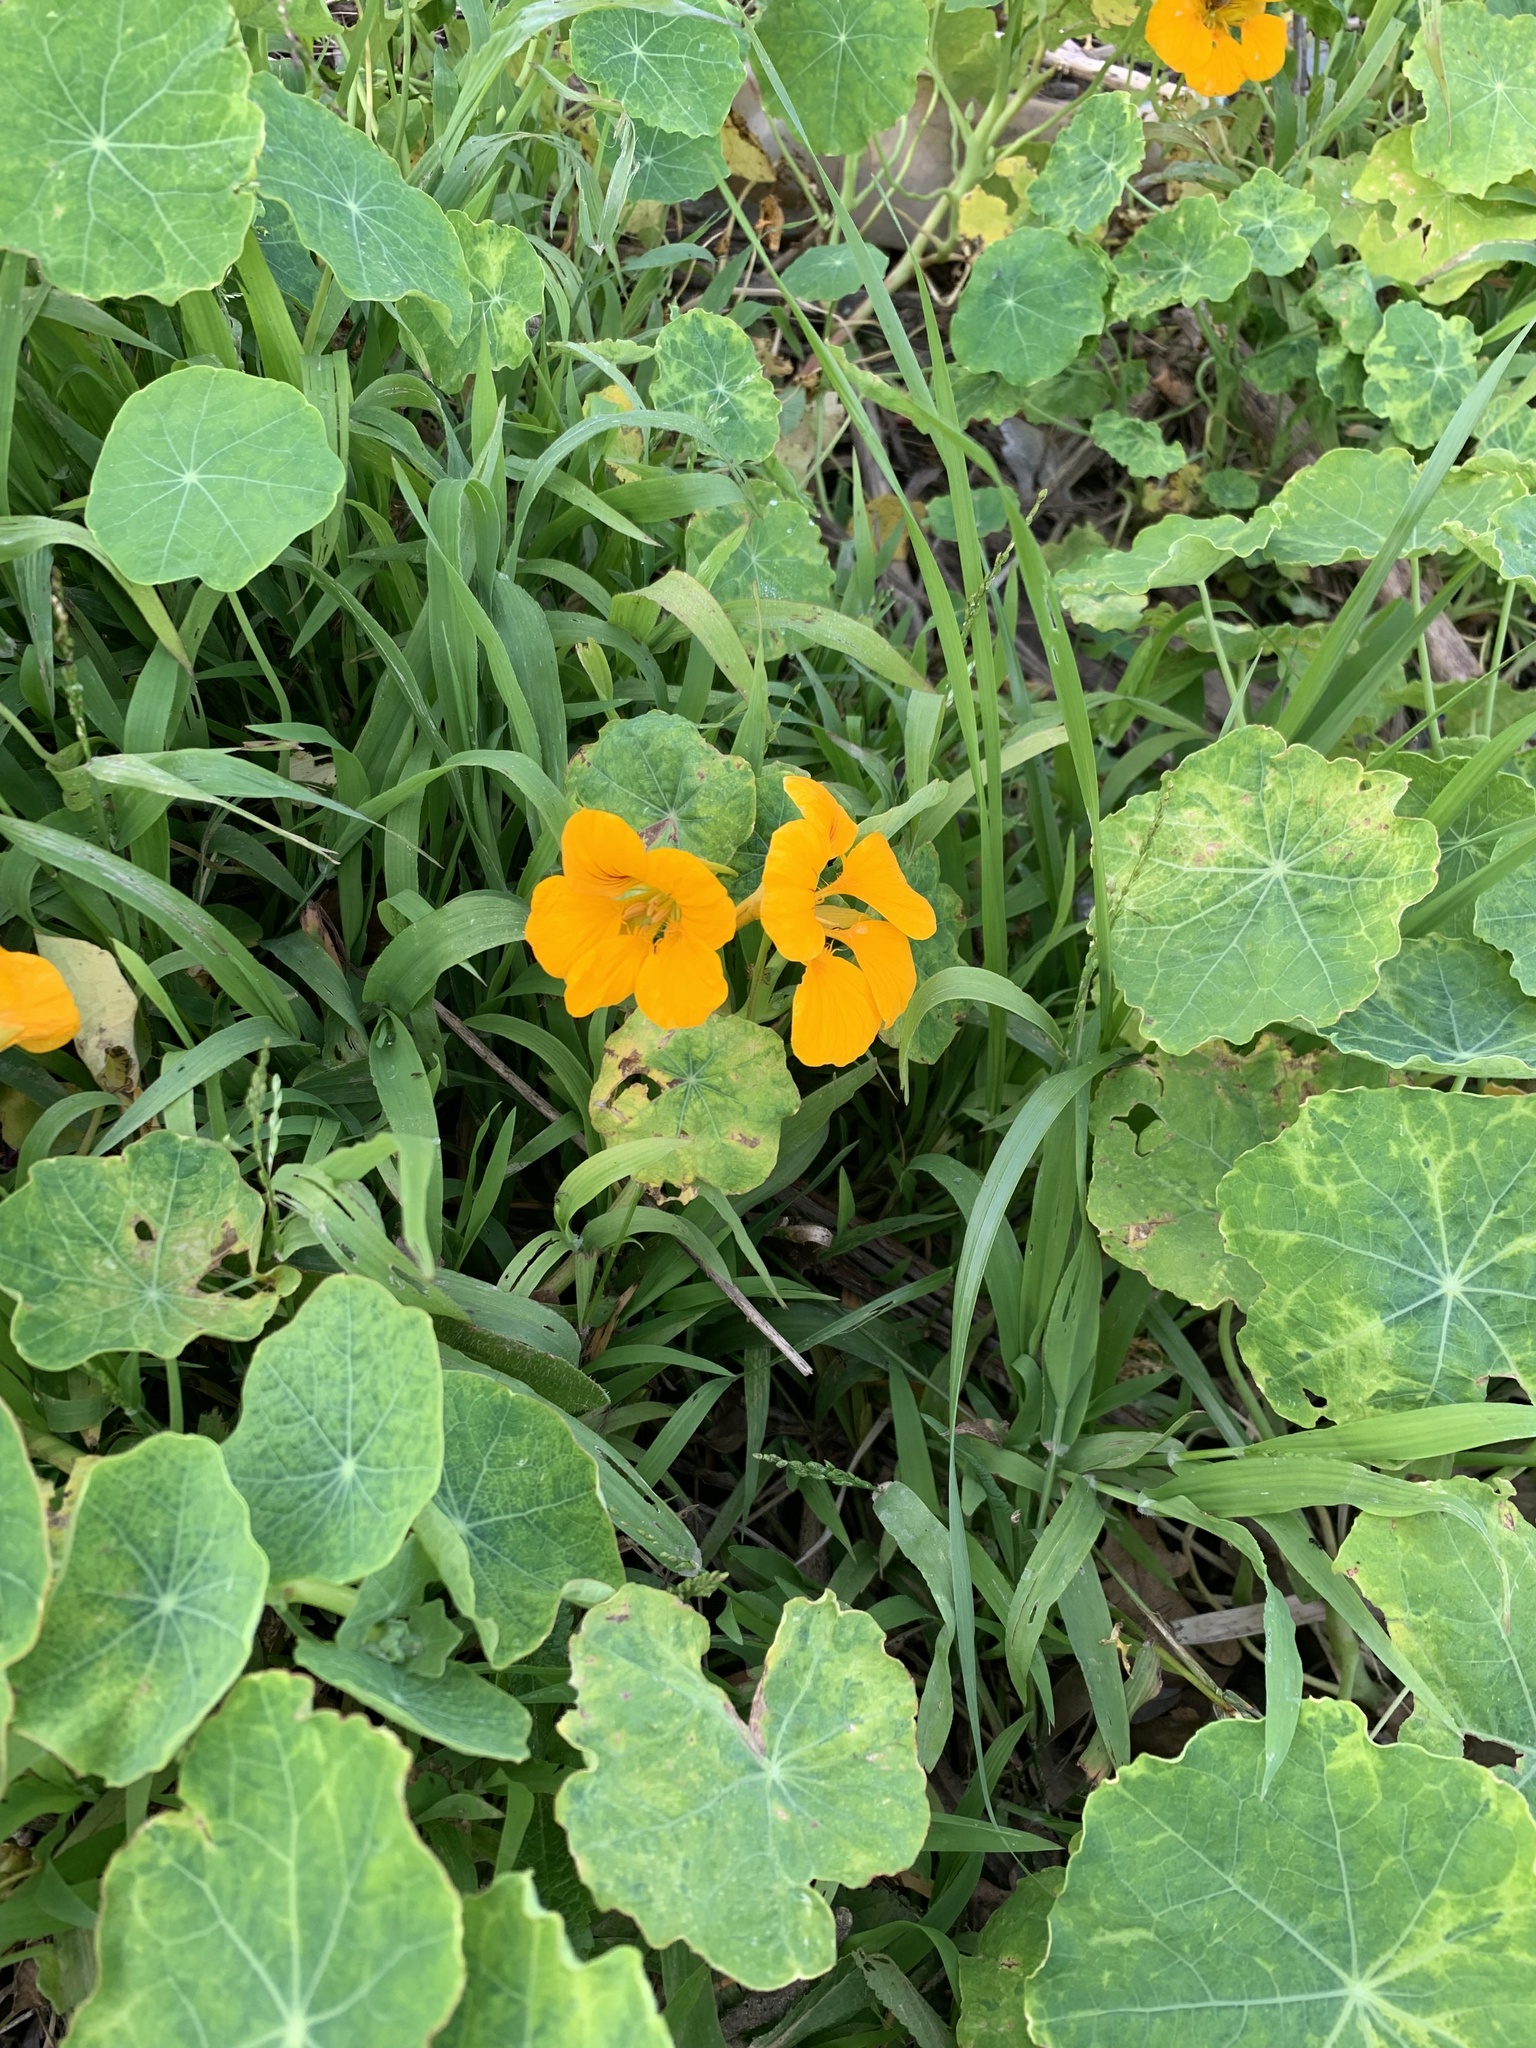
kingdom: Plantae
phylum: Tracheophyta
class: Magnoliopsida
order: Brassicales
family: Tropaeolaceae
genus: Tropaeolum
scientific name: Tropaeolum majus
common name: Nasturtium
